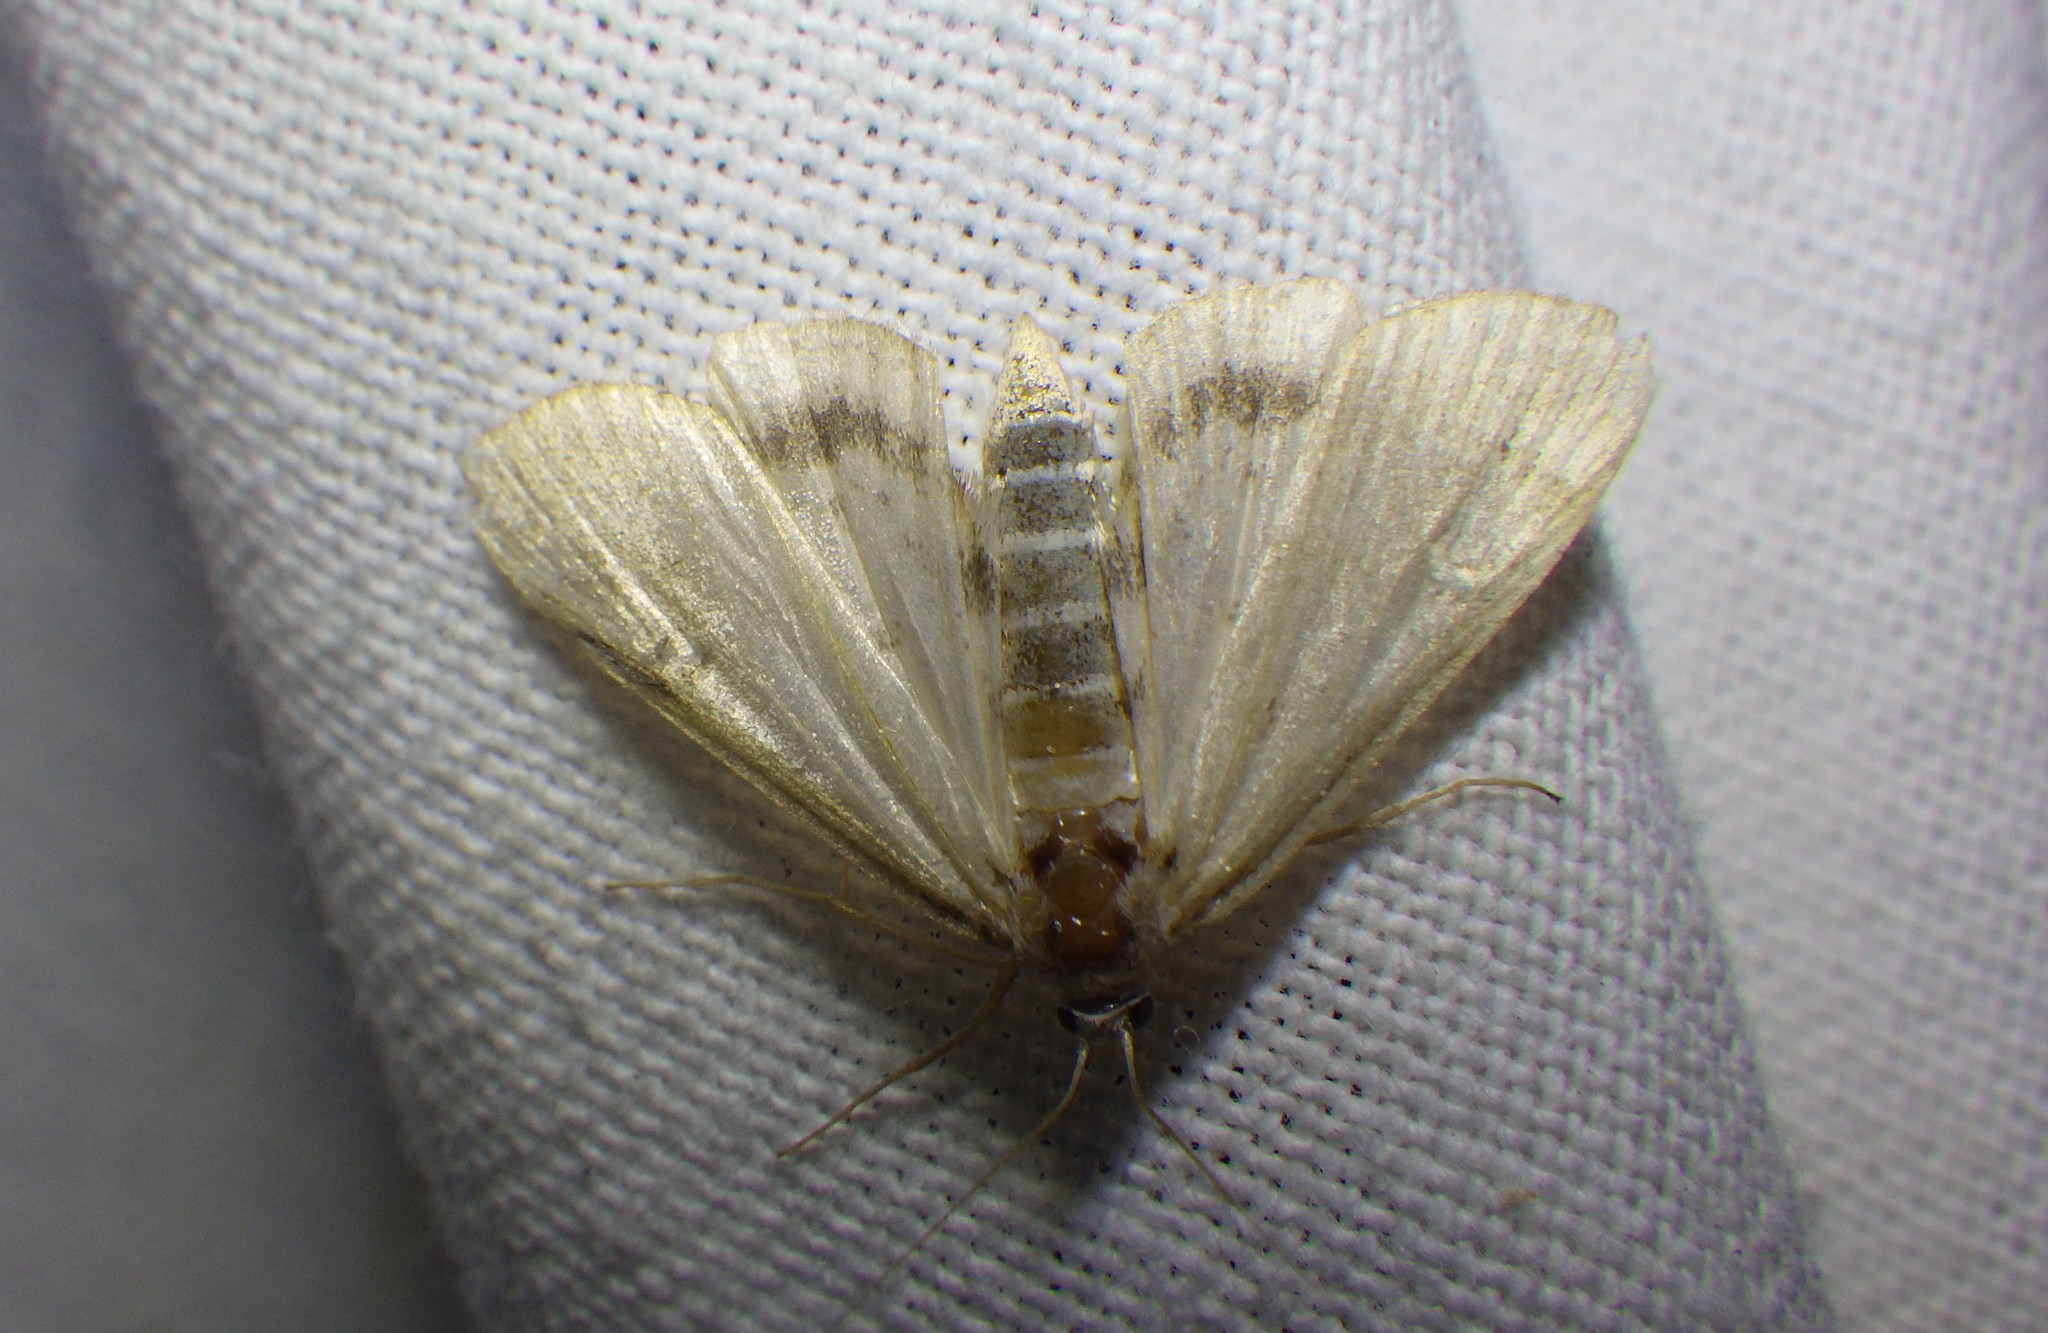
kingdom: Animalia
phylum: Arthropoda
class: Insecta
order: Lepidoptera
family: Crambidae
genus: Parapoynx
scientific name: Parapoynx stratiotata
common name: Ringed china-mark
